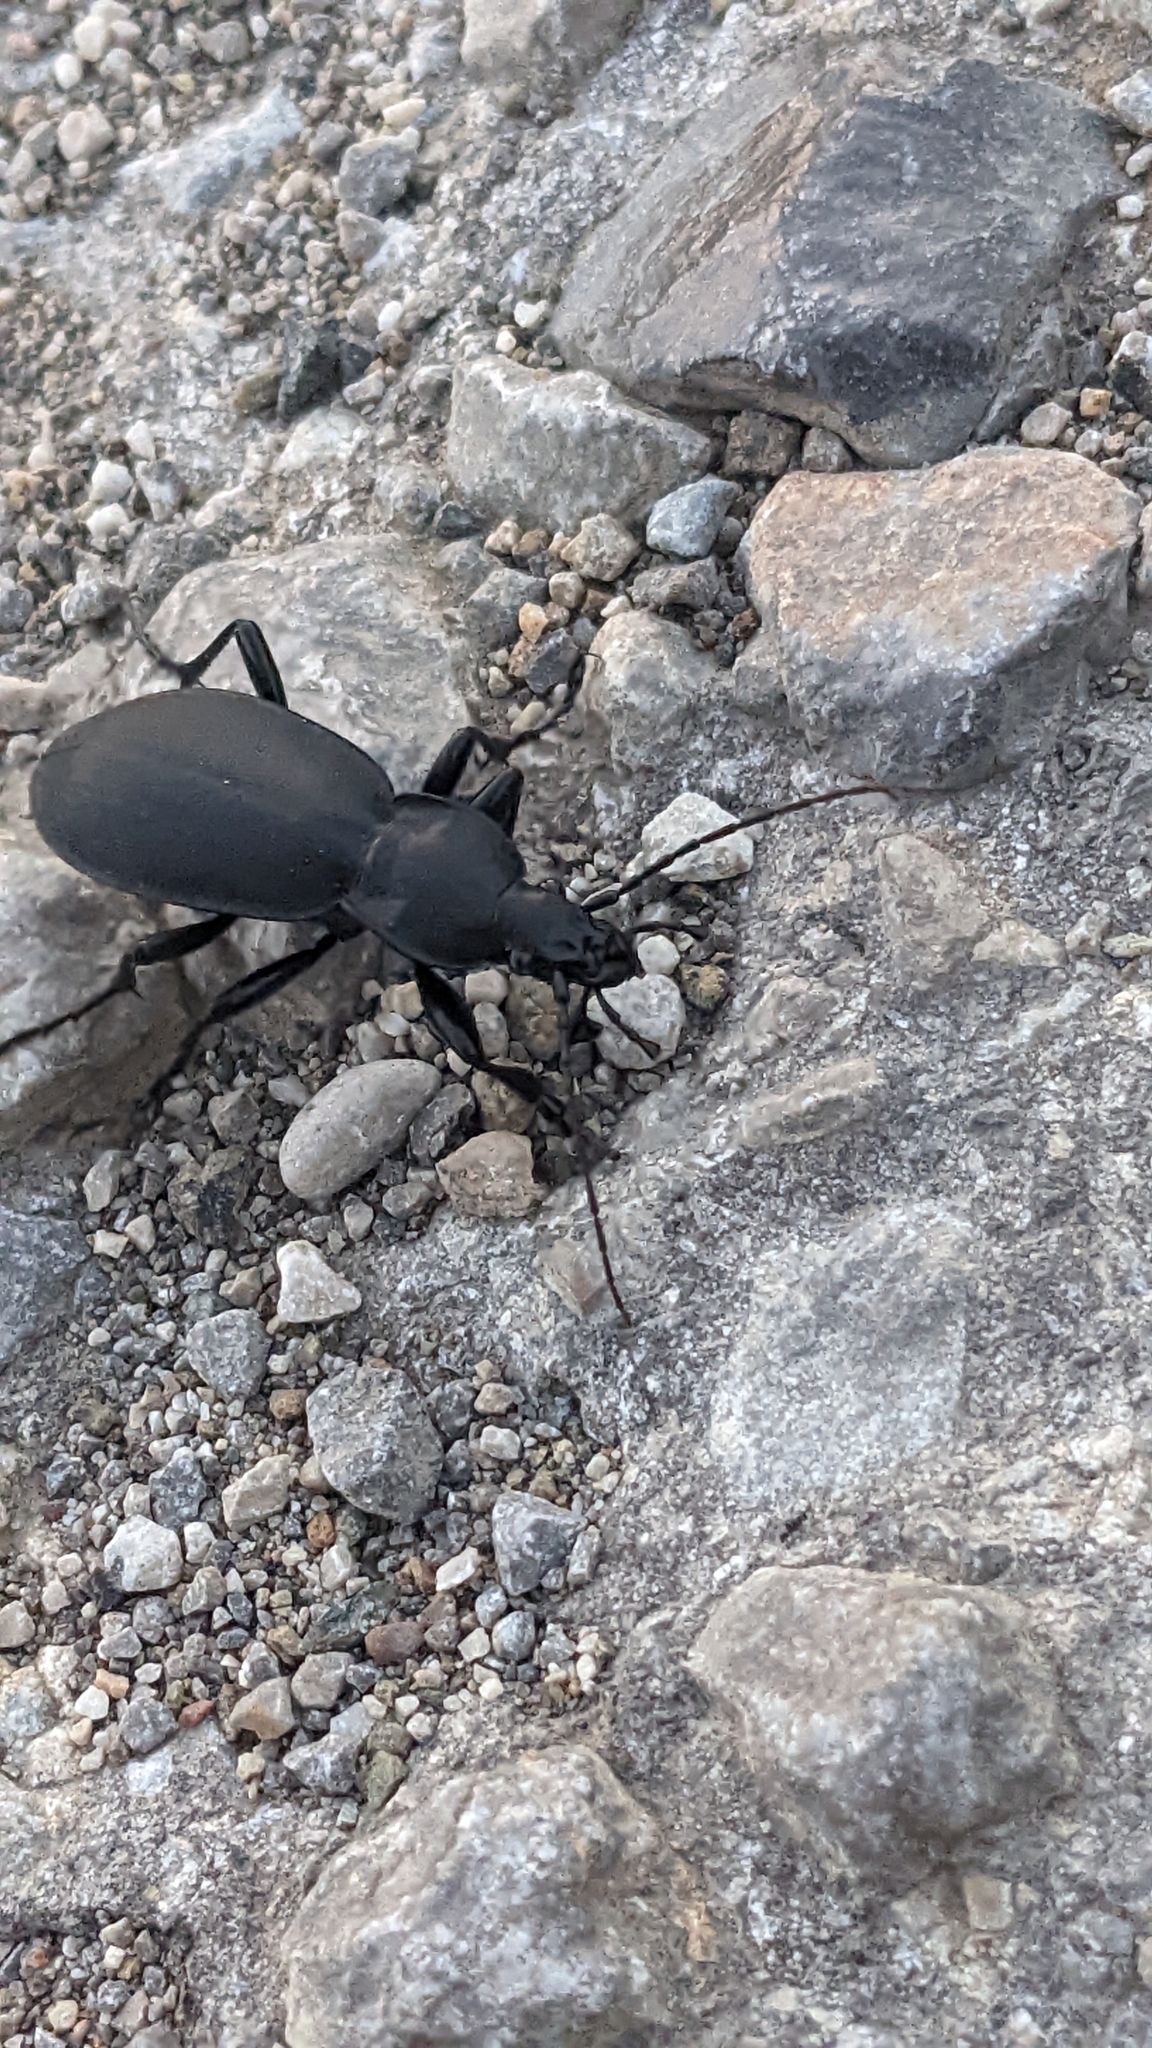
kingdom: Animalia
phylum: Arthropoda
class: Insecta
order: Coleoptera
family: Carabidae
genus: Carabus
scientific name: Carabus coriaceus
